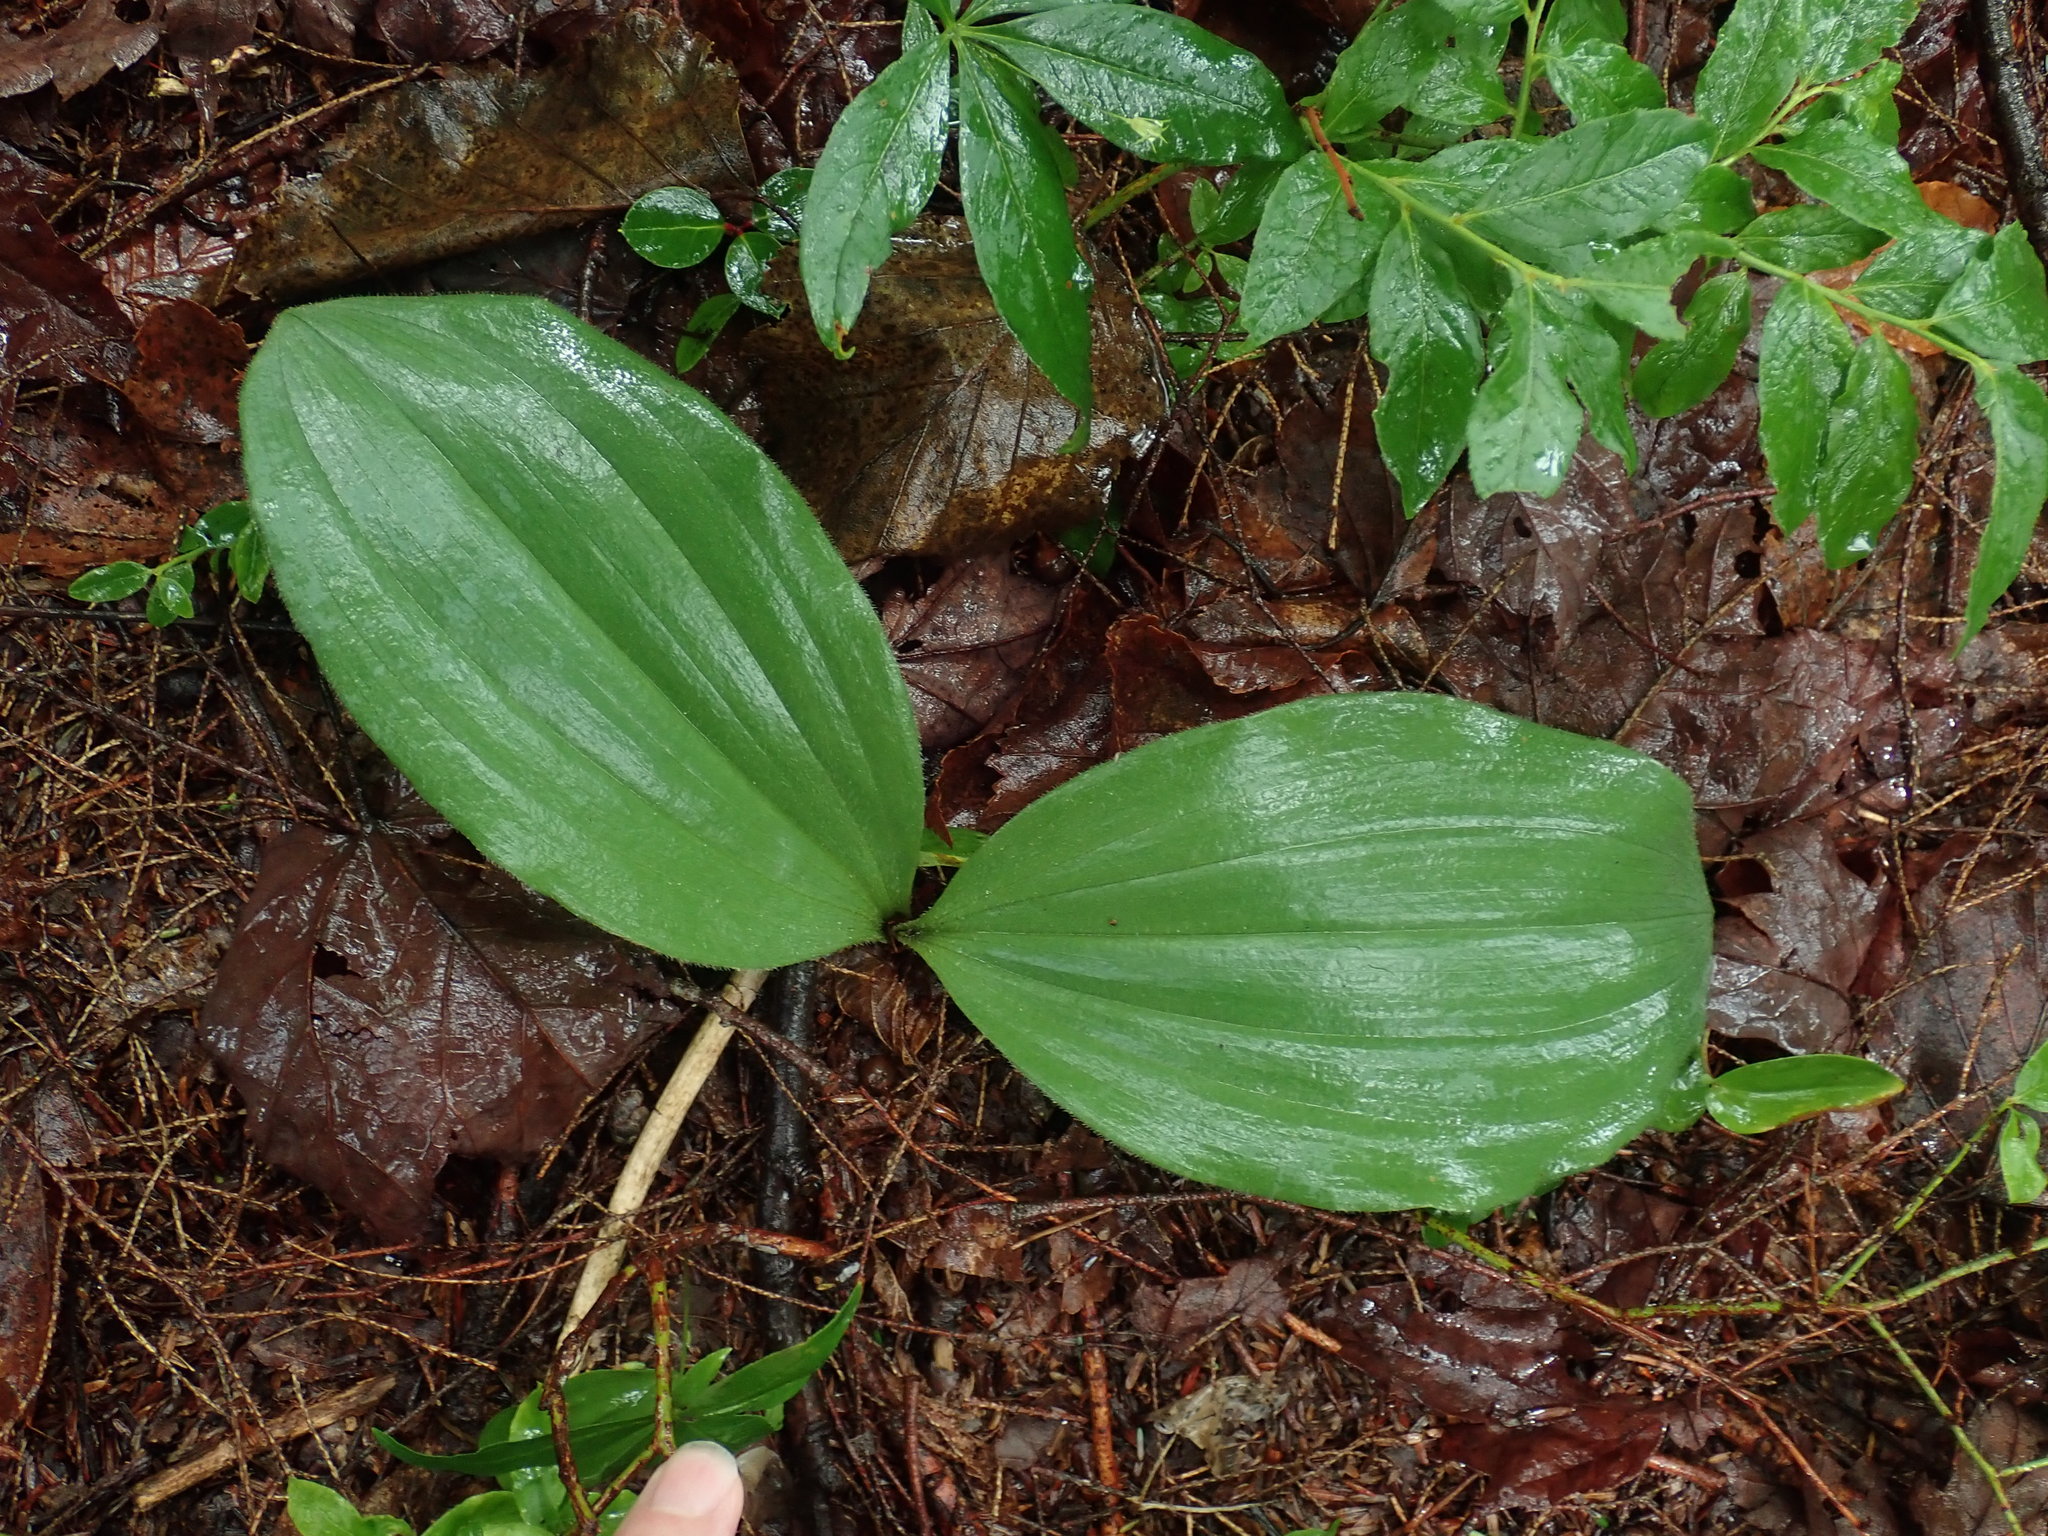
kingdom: Plantae
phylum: Tracheophyta
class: Liliopsida
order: Asparagales
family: Orchidaceae
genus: Cypripedium
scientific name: Cypripedium acaule
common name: Pink lady's-slipper
